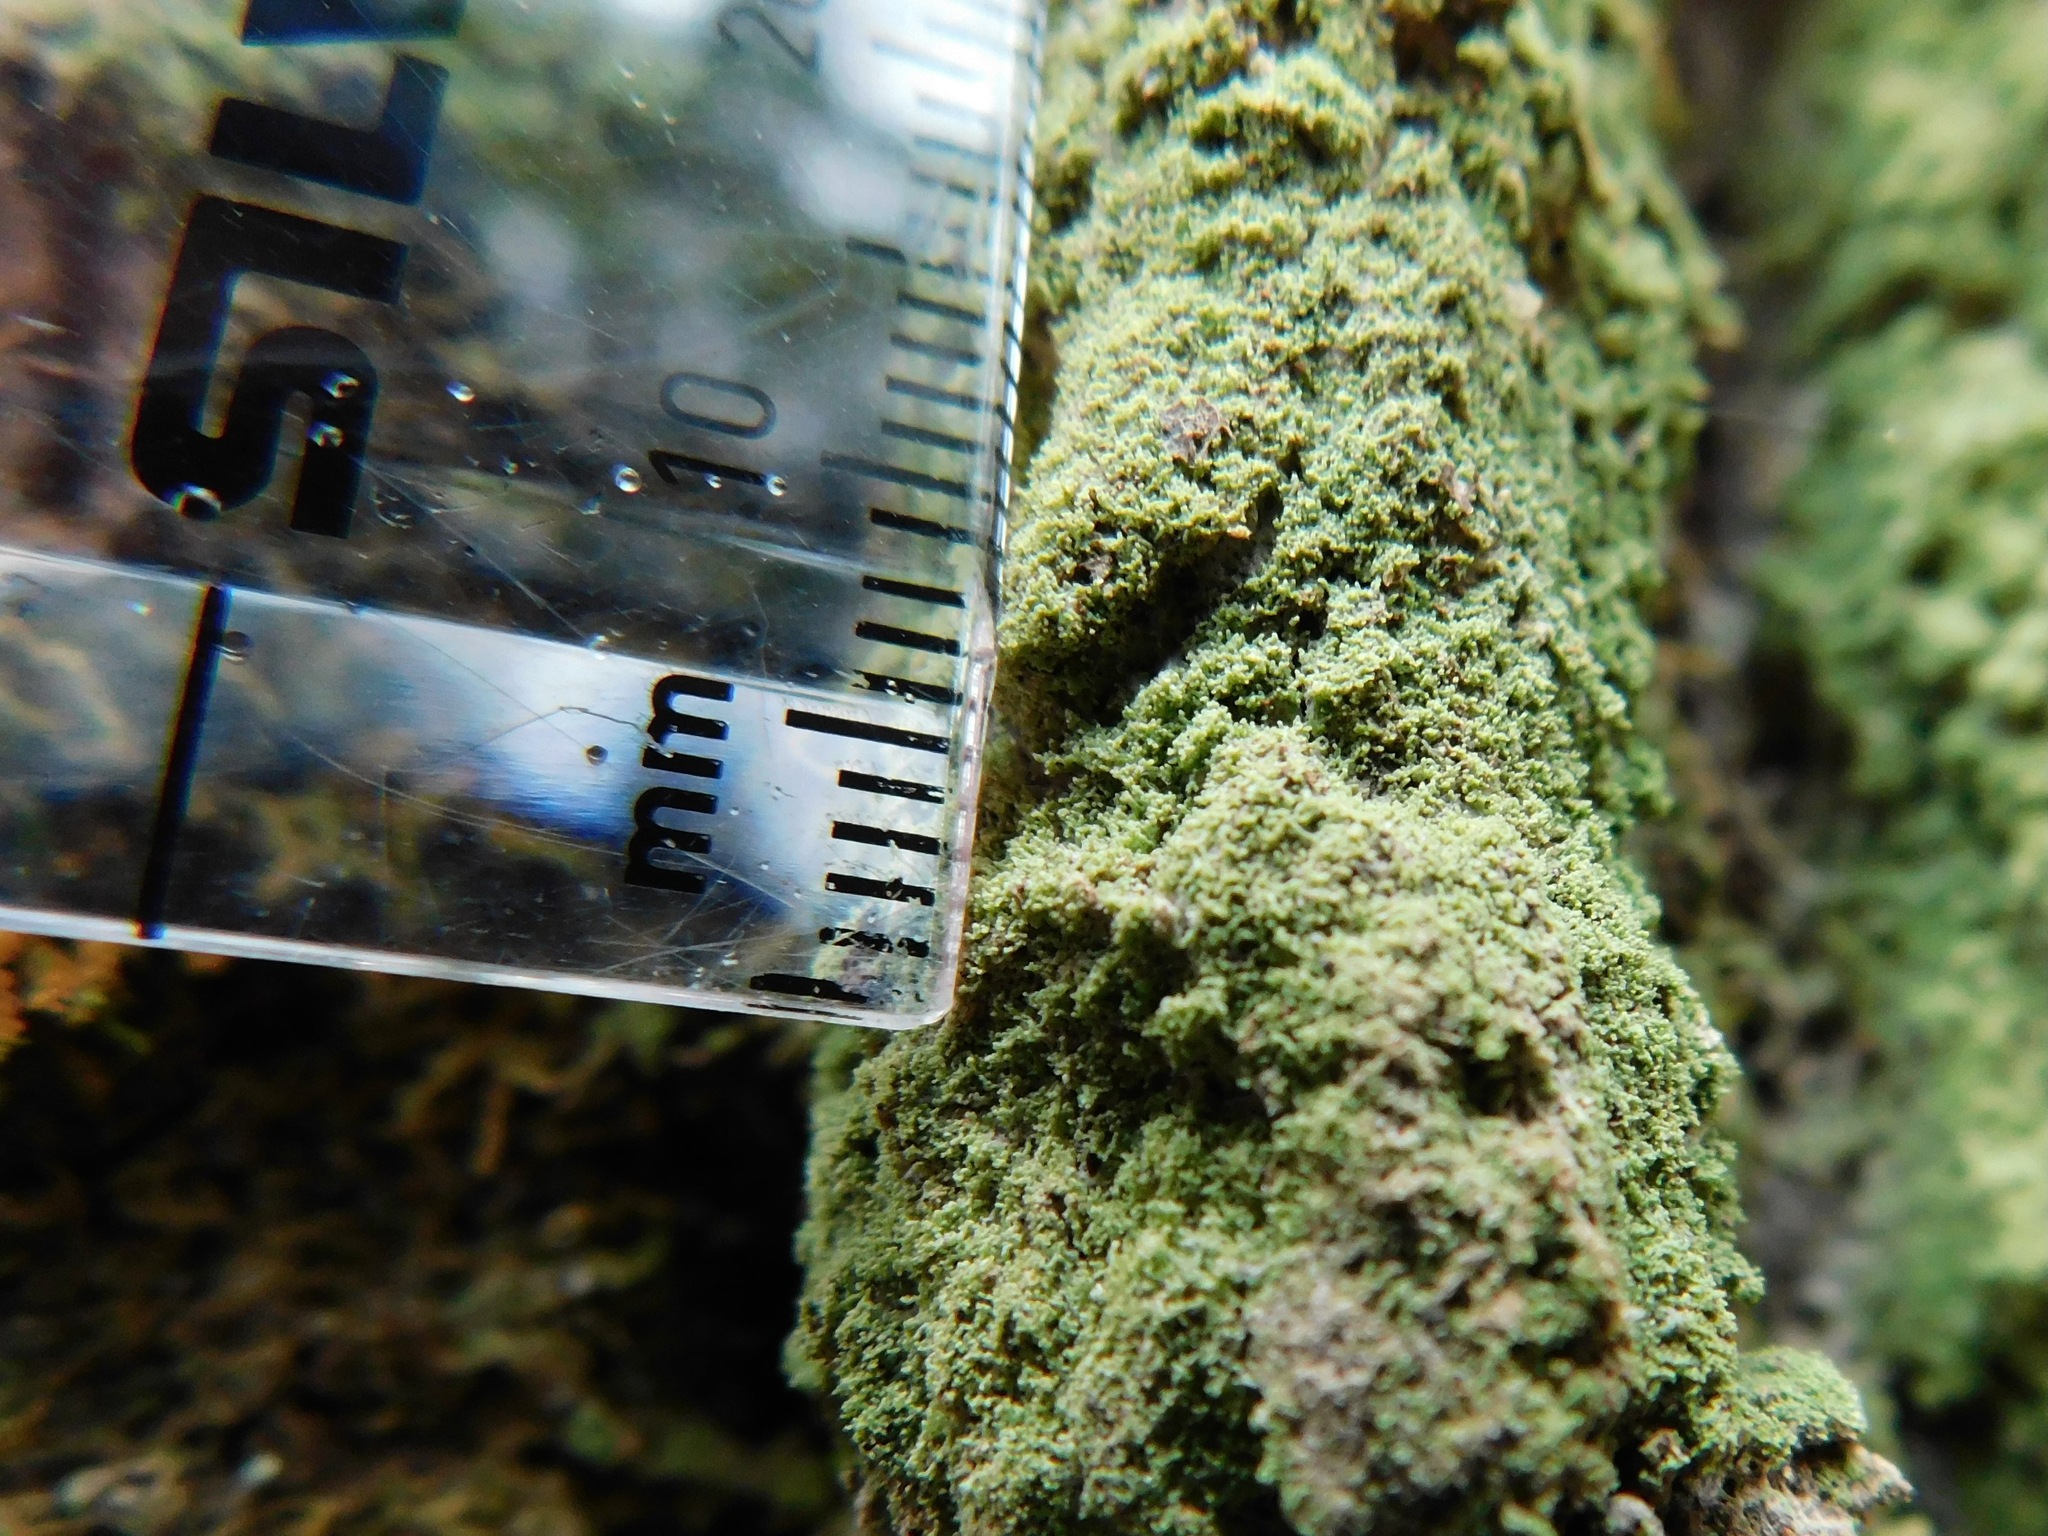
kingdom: Fungi
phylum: Ascomycota
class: Lecanoromycetes
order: Lecanorales
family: Ramalinaceae
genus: Phyllopsora
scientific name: Phyllopsora corallina
